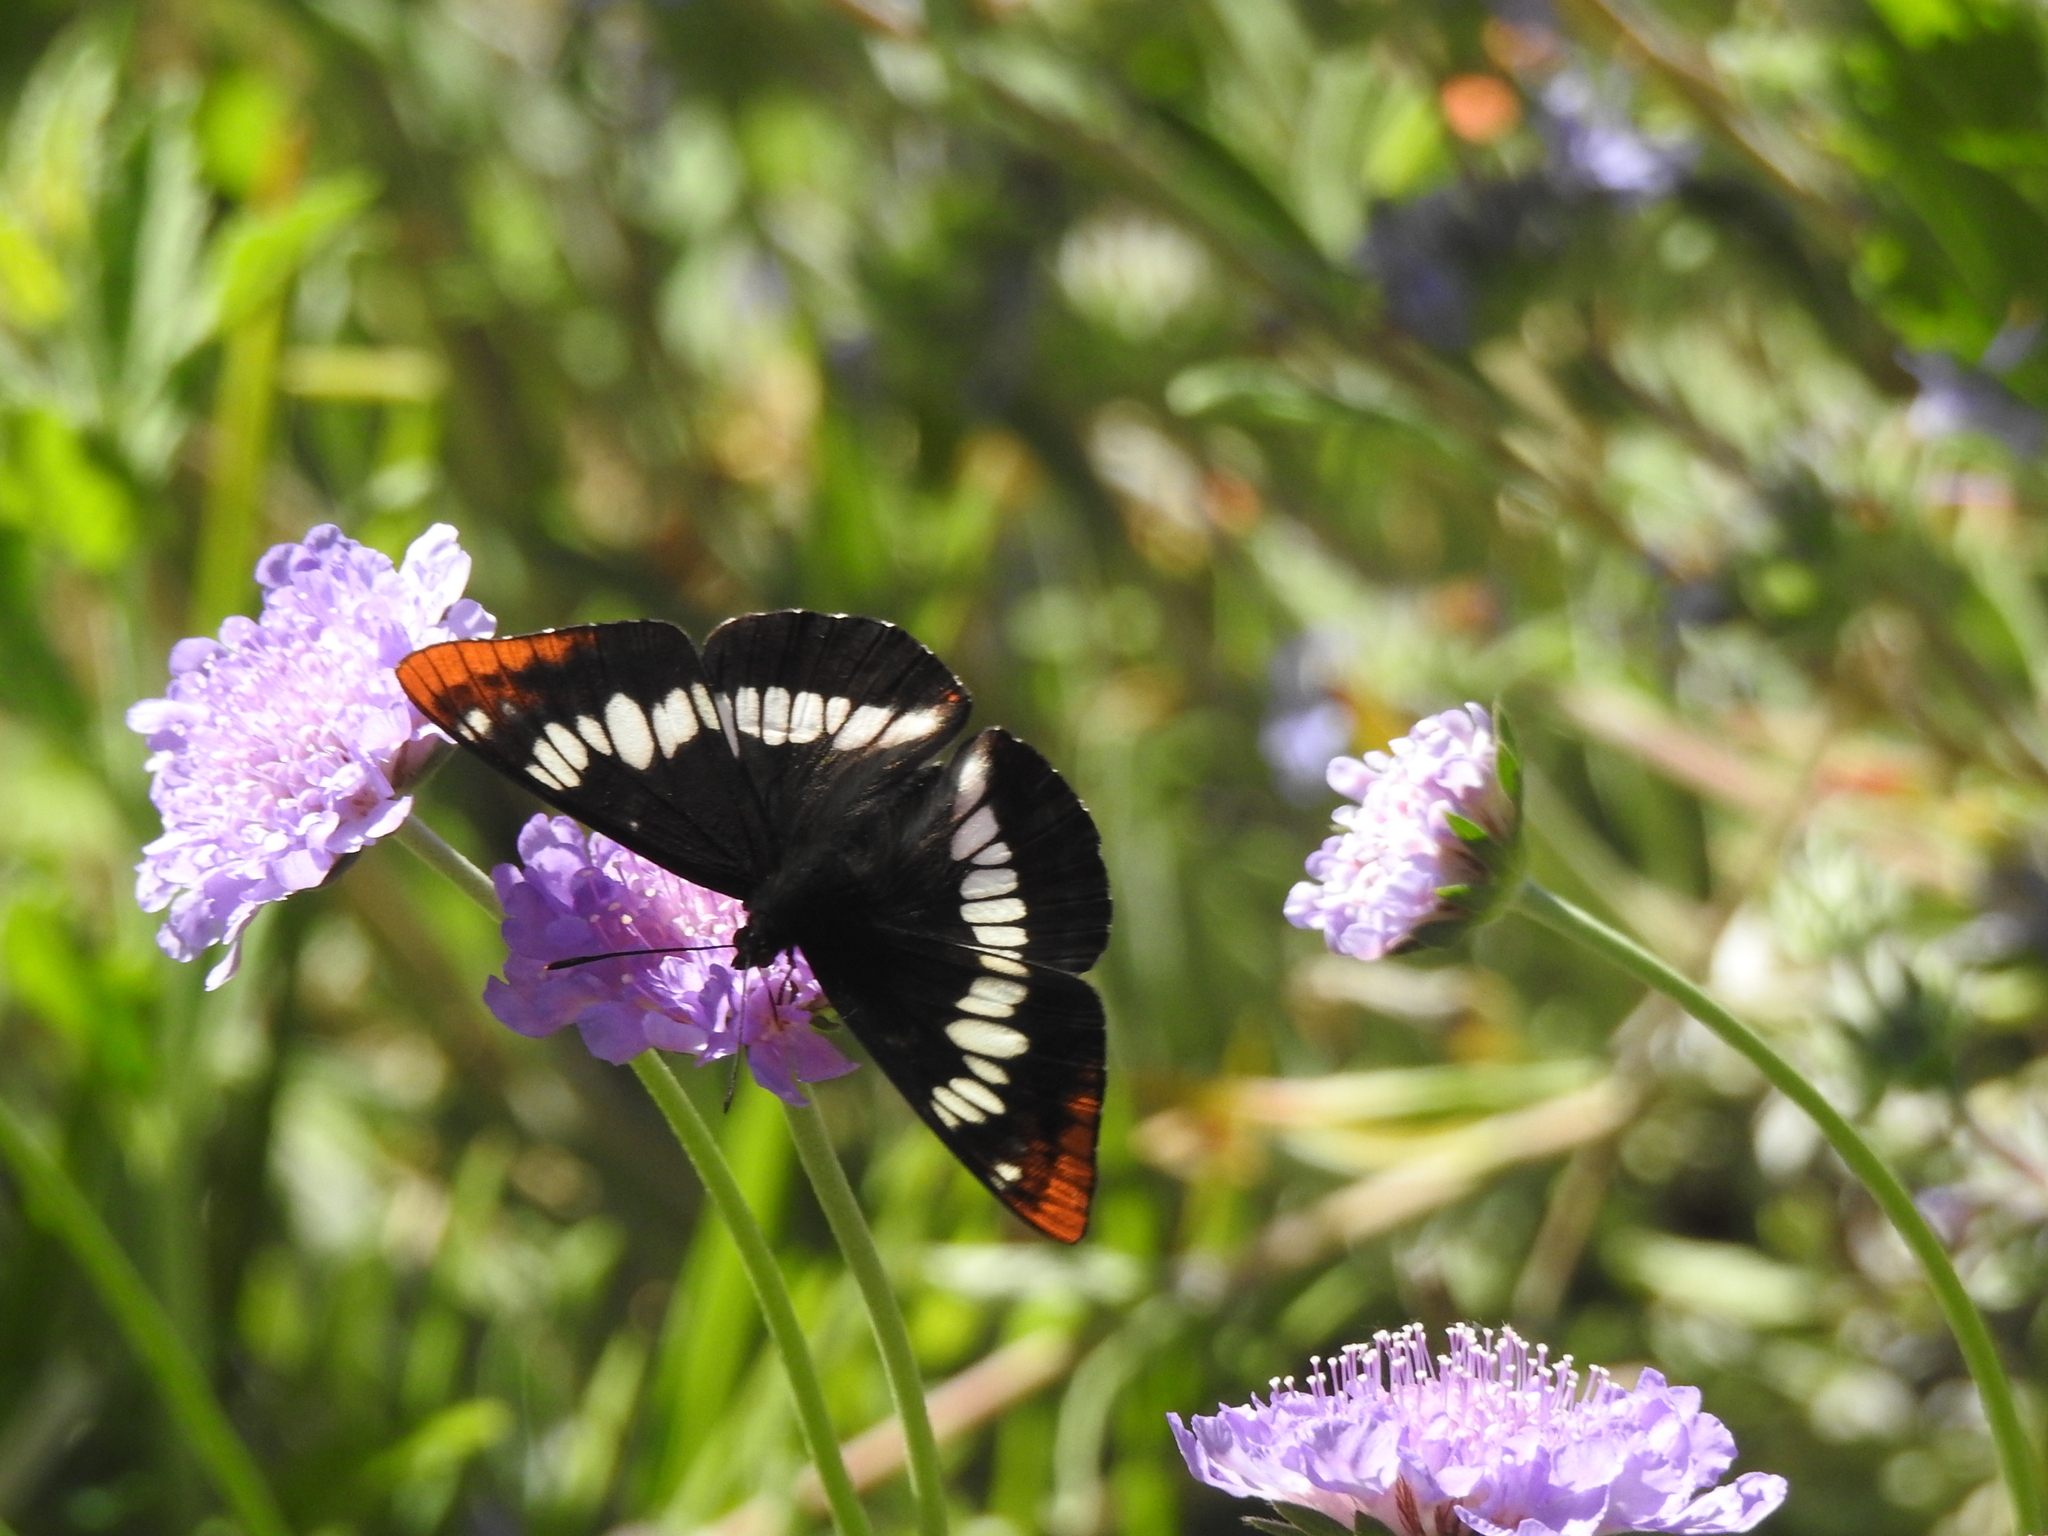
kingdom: Animalia
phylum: Arthropoda
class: Insecta
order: Lepidoptera
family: Nymphalidae
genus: Limenitis
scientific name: Limenitis lorquini
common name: Lorquin's admiral
